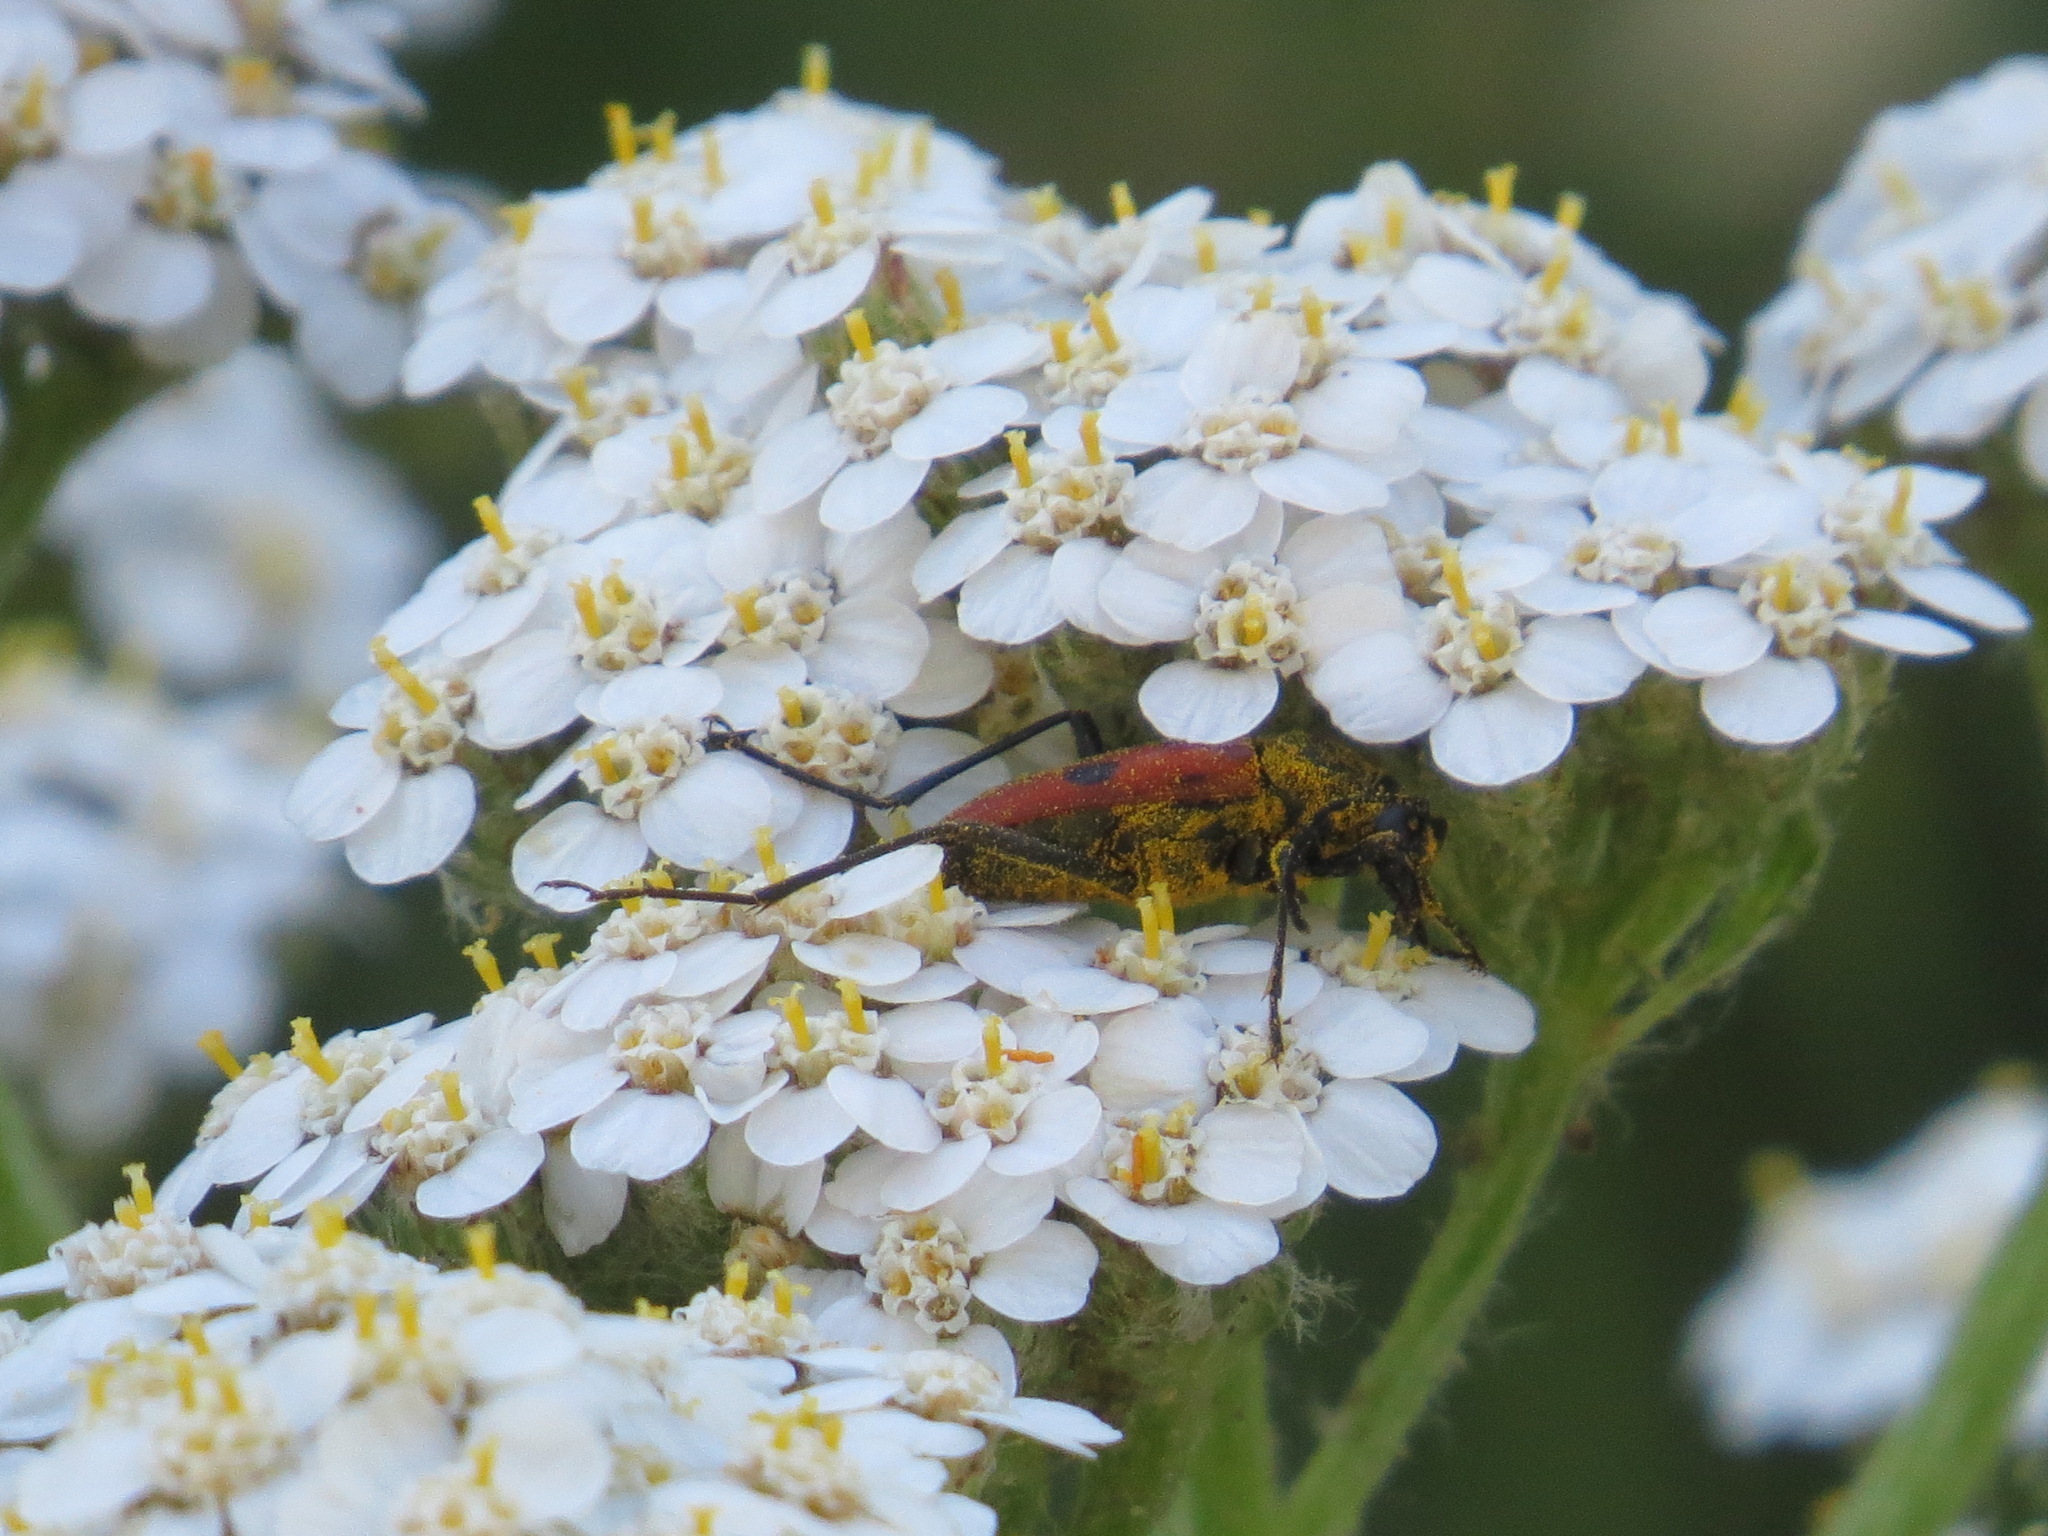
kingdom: Animalia
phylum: Arthropoda
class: Insecta
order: Coleoptera
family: Cerambycidae
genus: Anastrangalia
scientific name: Anastrangalia laetifica
